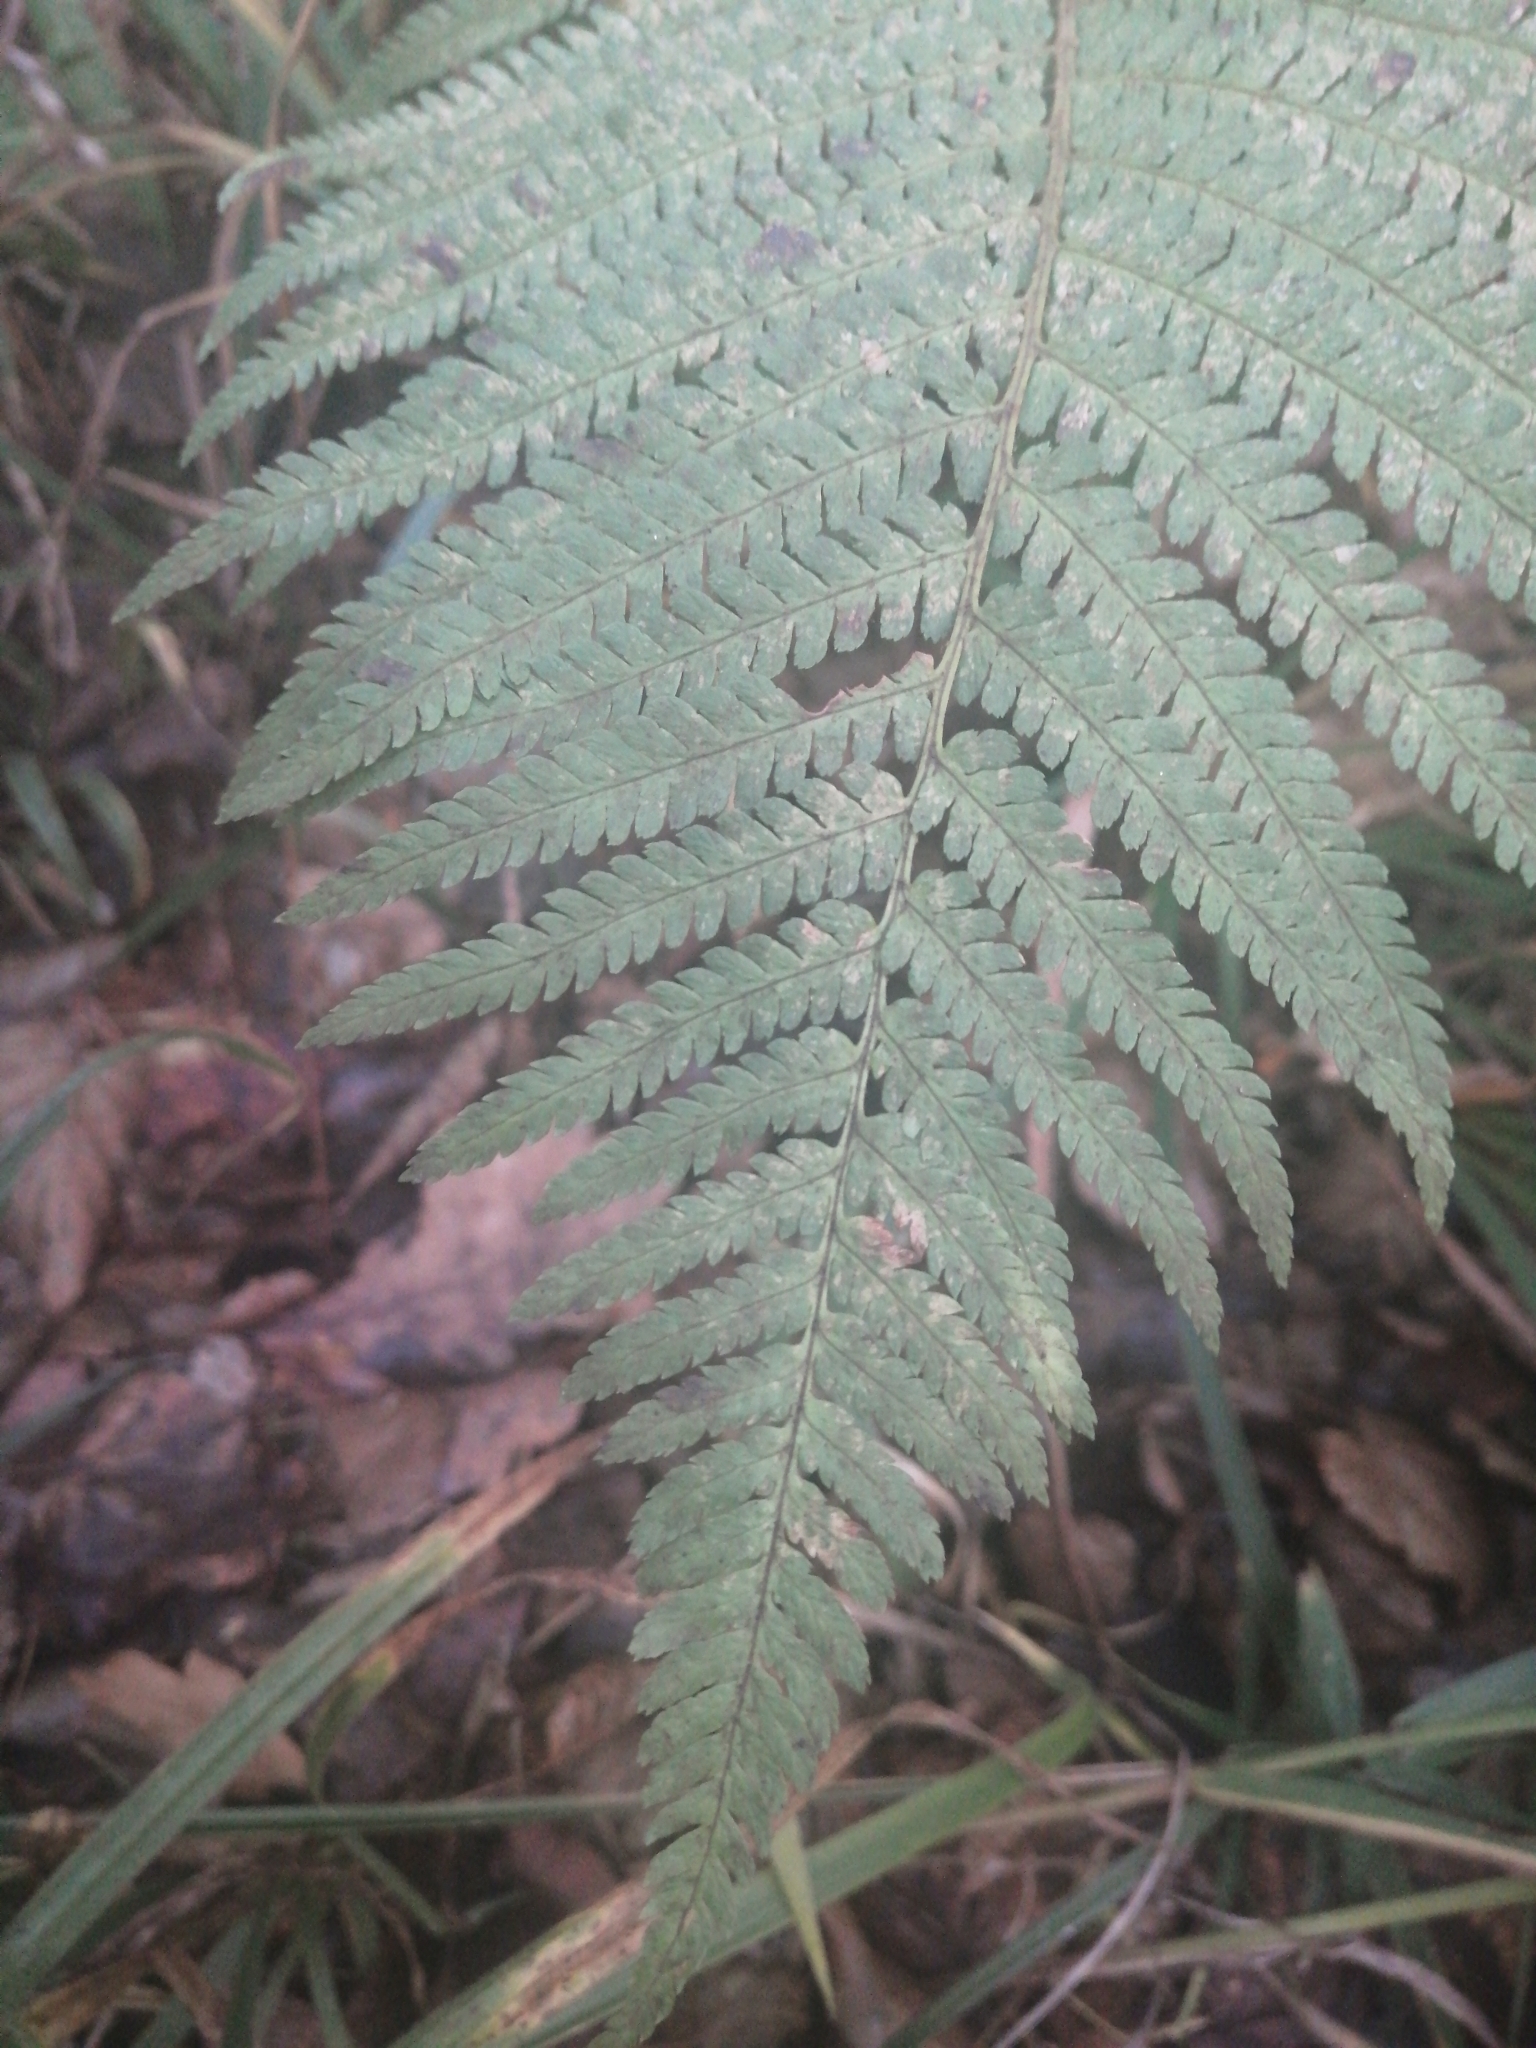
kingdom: Plantae
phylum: Tracheophyta
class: Polypodiopsida
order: Polypodiales
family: Dryopteridaceae
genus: Dryopteris
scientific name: Dryopteris filix-mas
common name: Male fern
